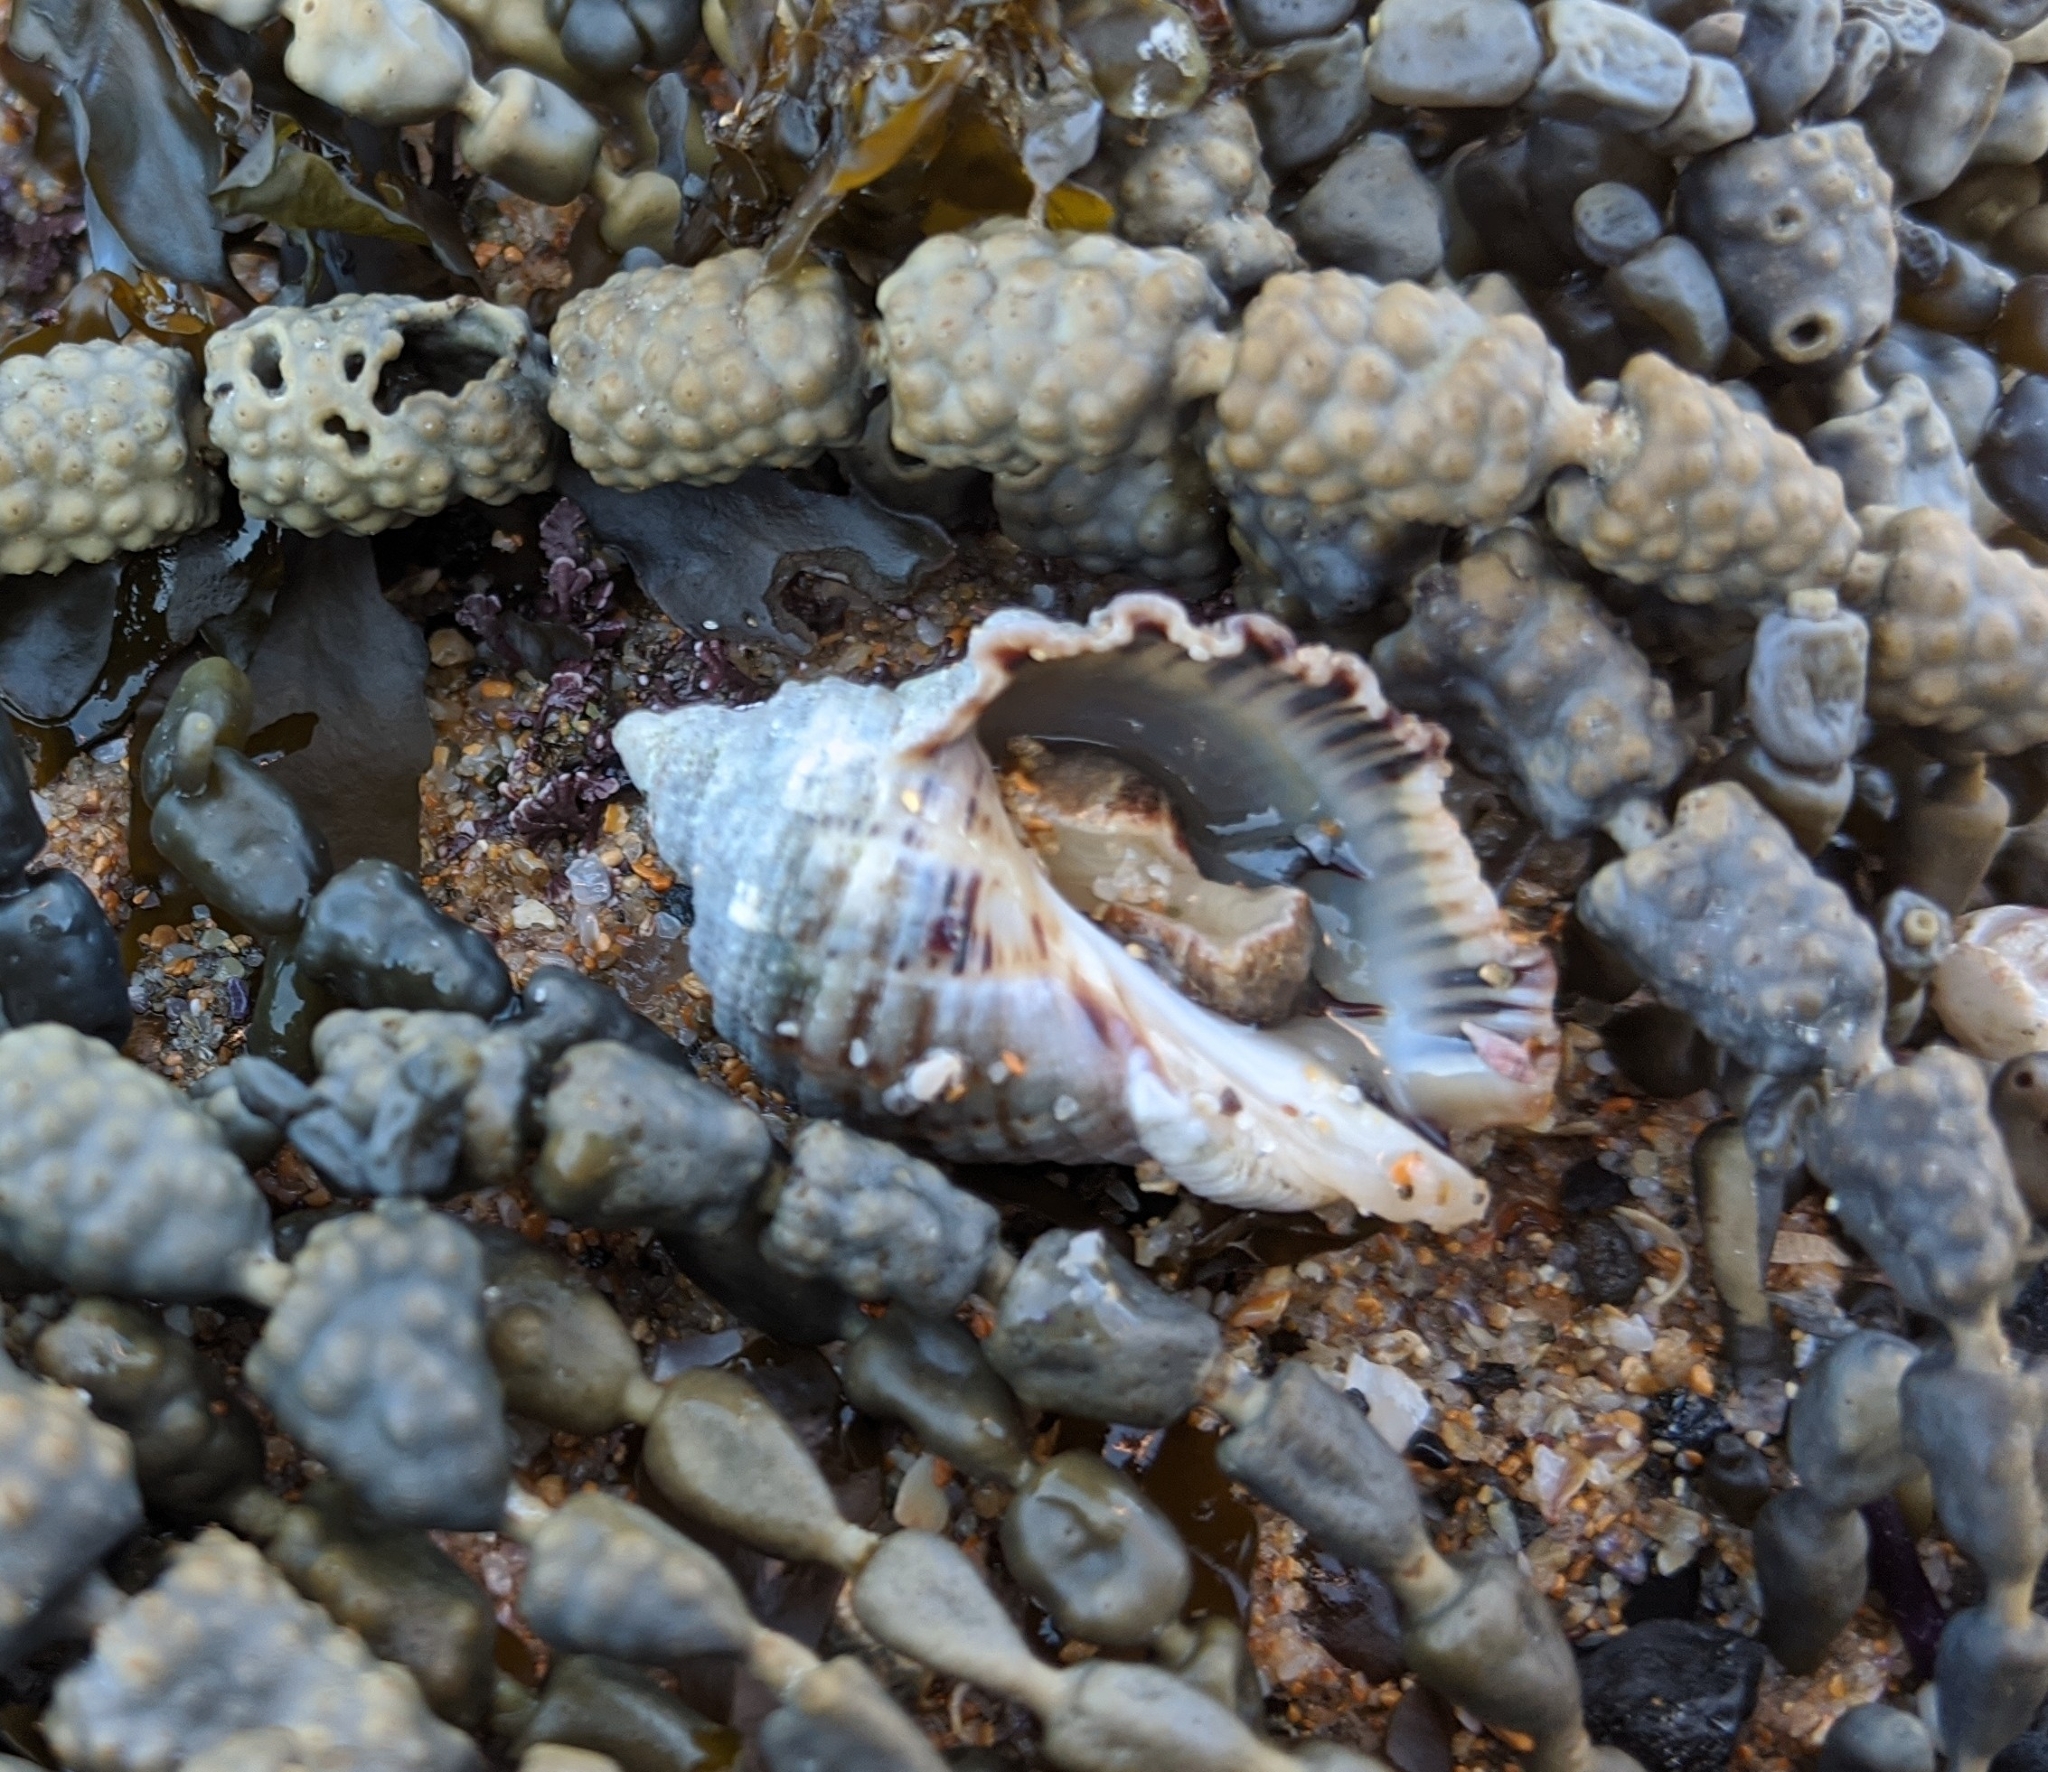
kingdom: Animalia
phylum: Mollusca
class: Gastropoda
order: Neogastropoda
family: Muricidae
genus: Dicathais
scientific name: Dicathais orbita
